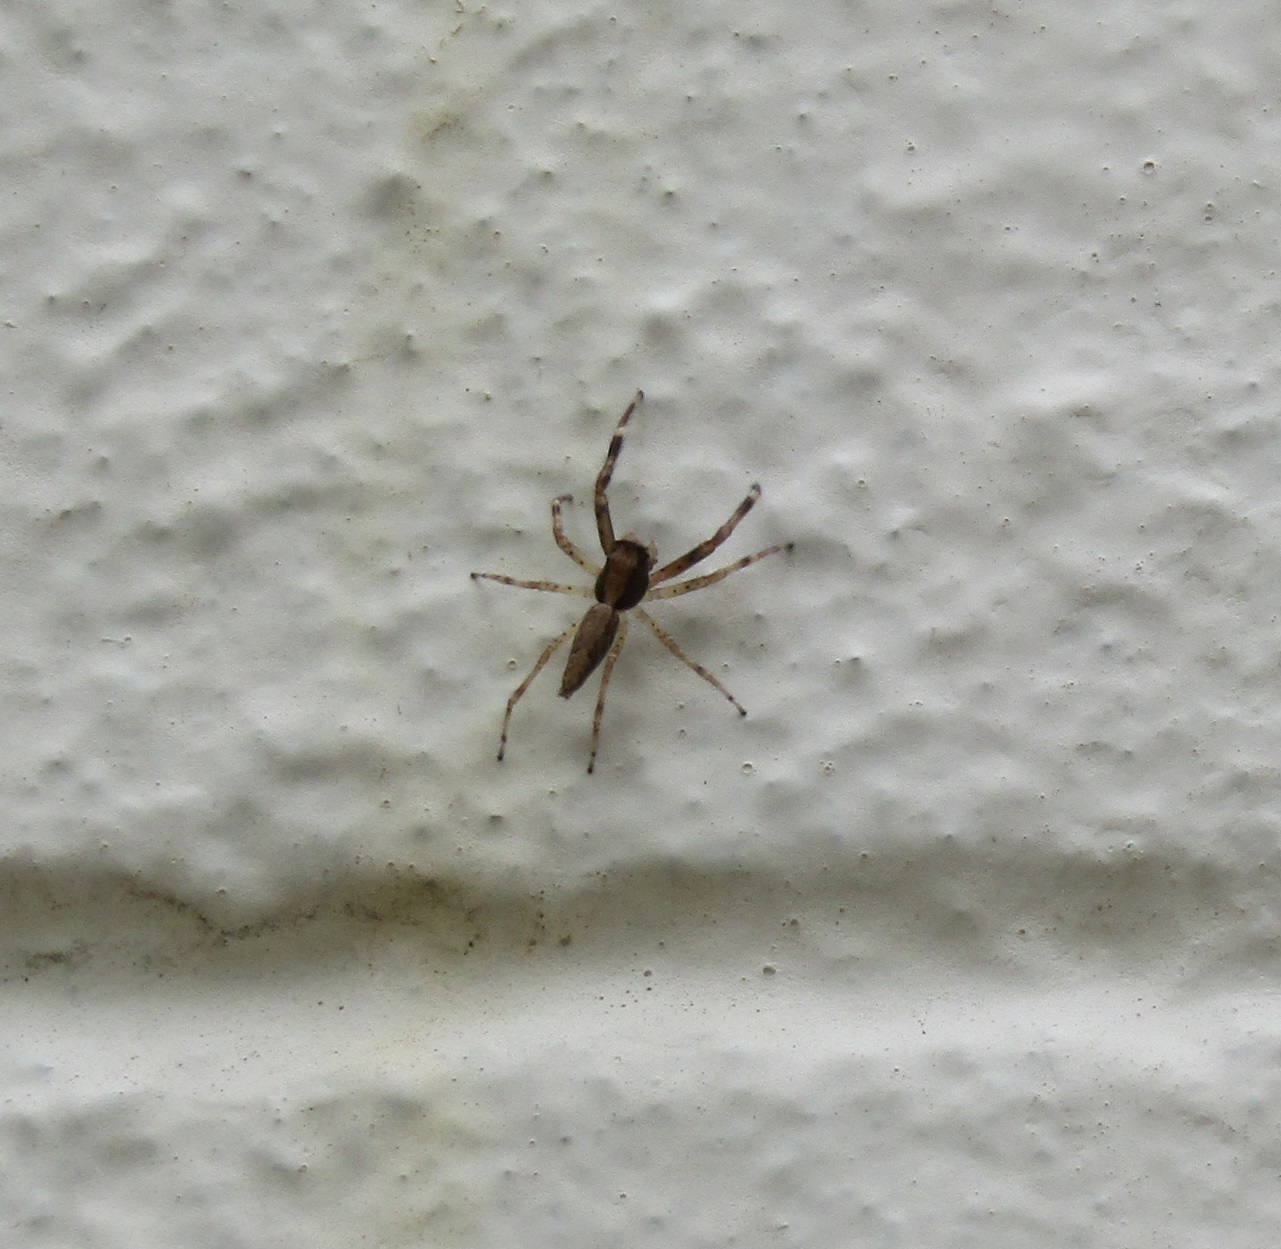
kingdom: Animalia
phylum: Arthropoda
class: Arachnida
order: Araneae
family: Salticidae
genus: Helpis
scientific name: Helpis minitabunda
